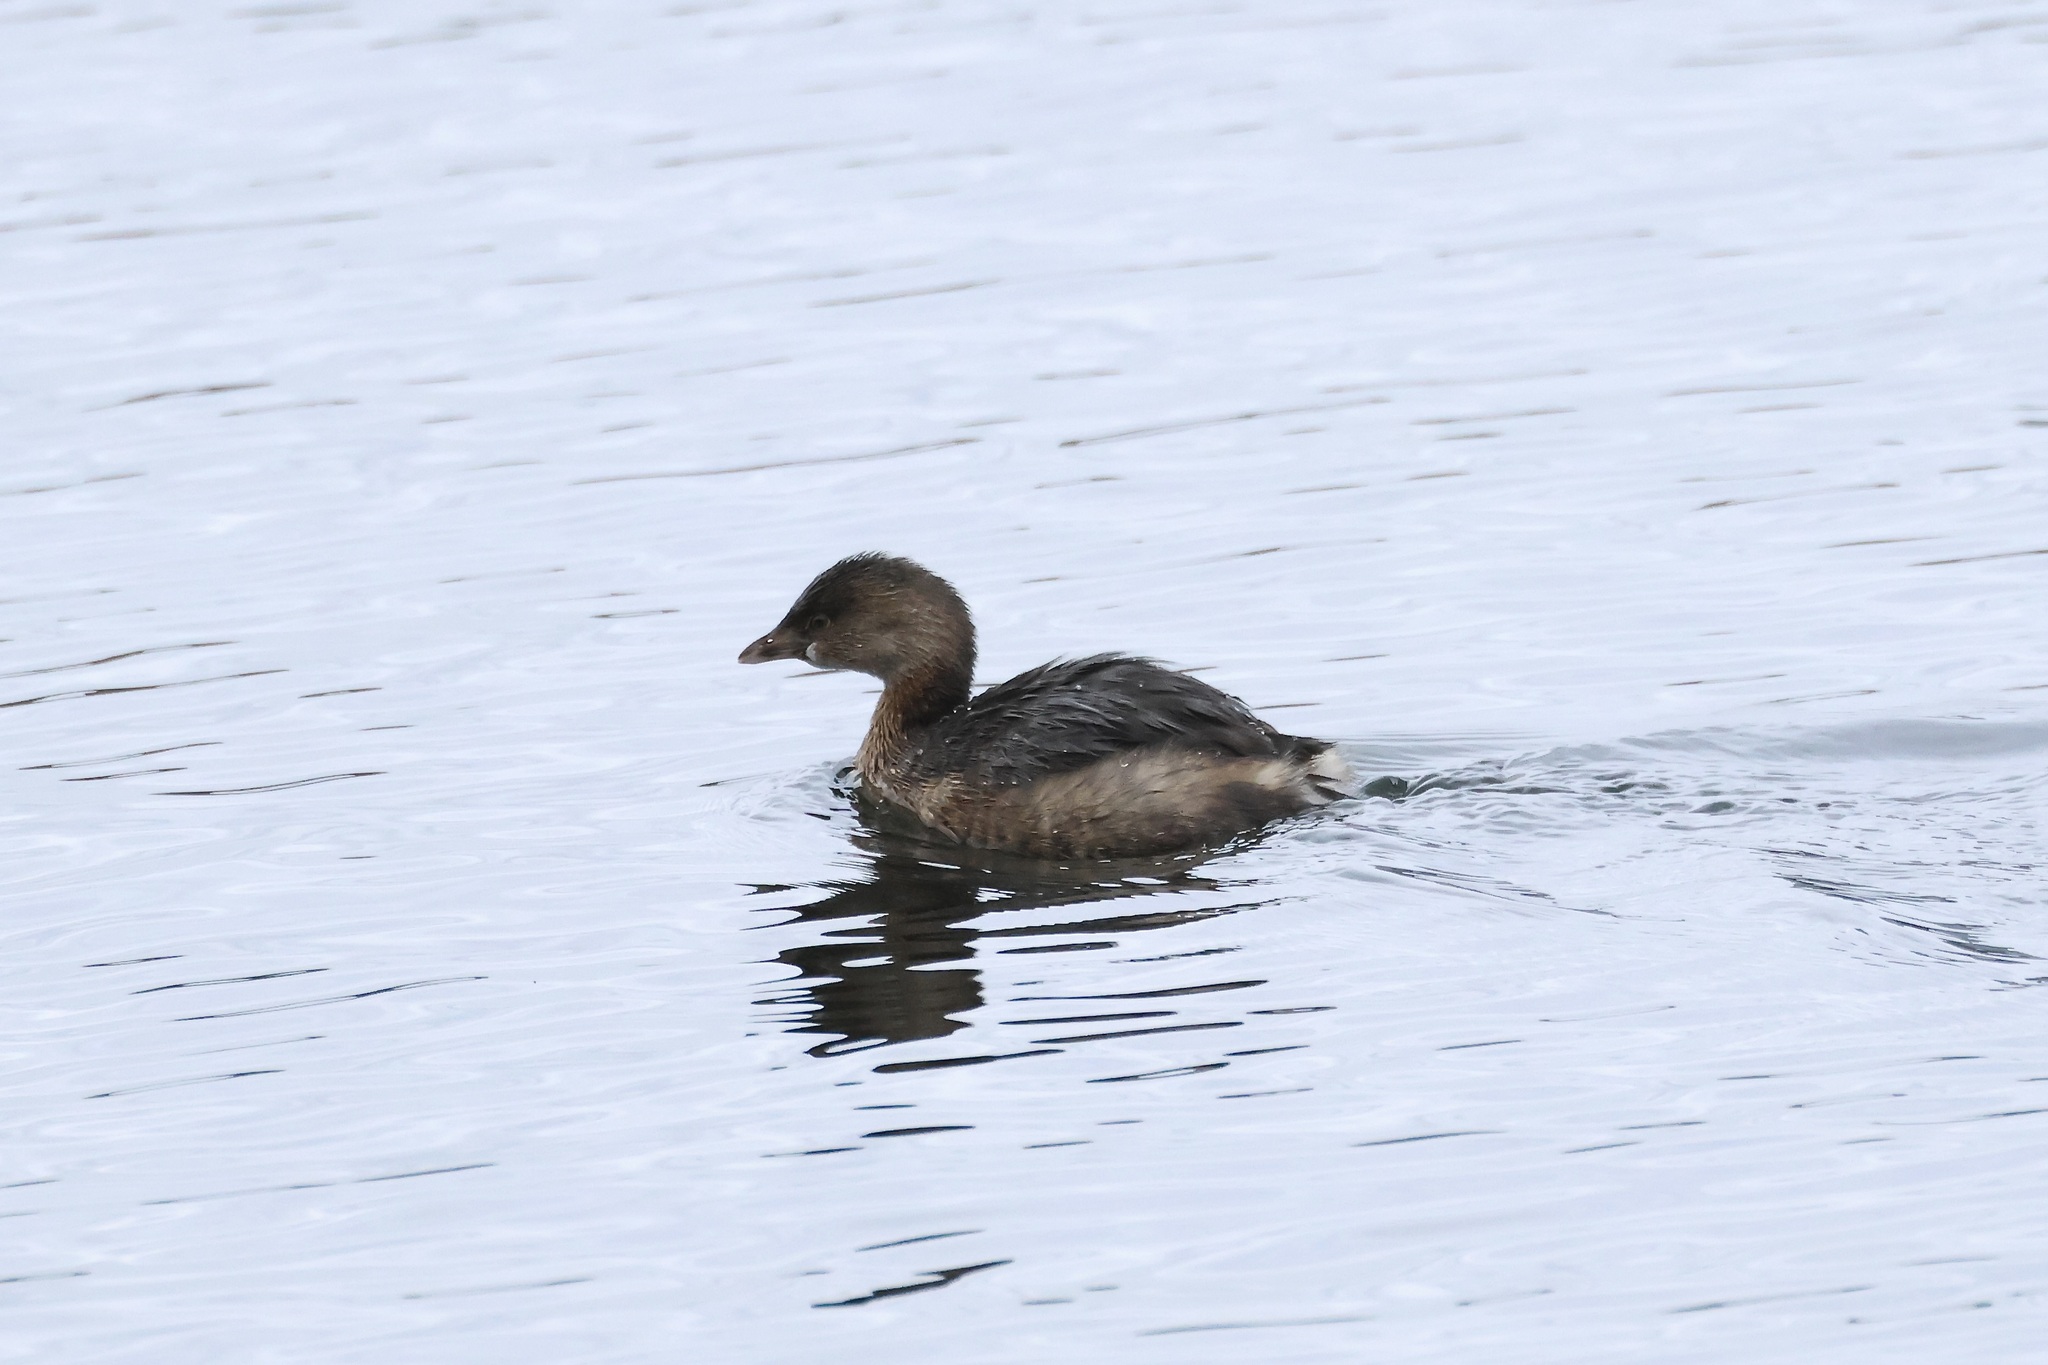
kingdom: Animalia
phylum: Chordata
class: Aves
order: Podicipediformes
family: Podicipedidae
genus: Podilymbus
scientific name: Podilymbus podiceps
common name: Pied-billed grebe
